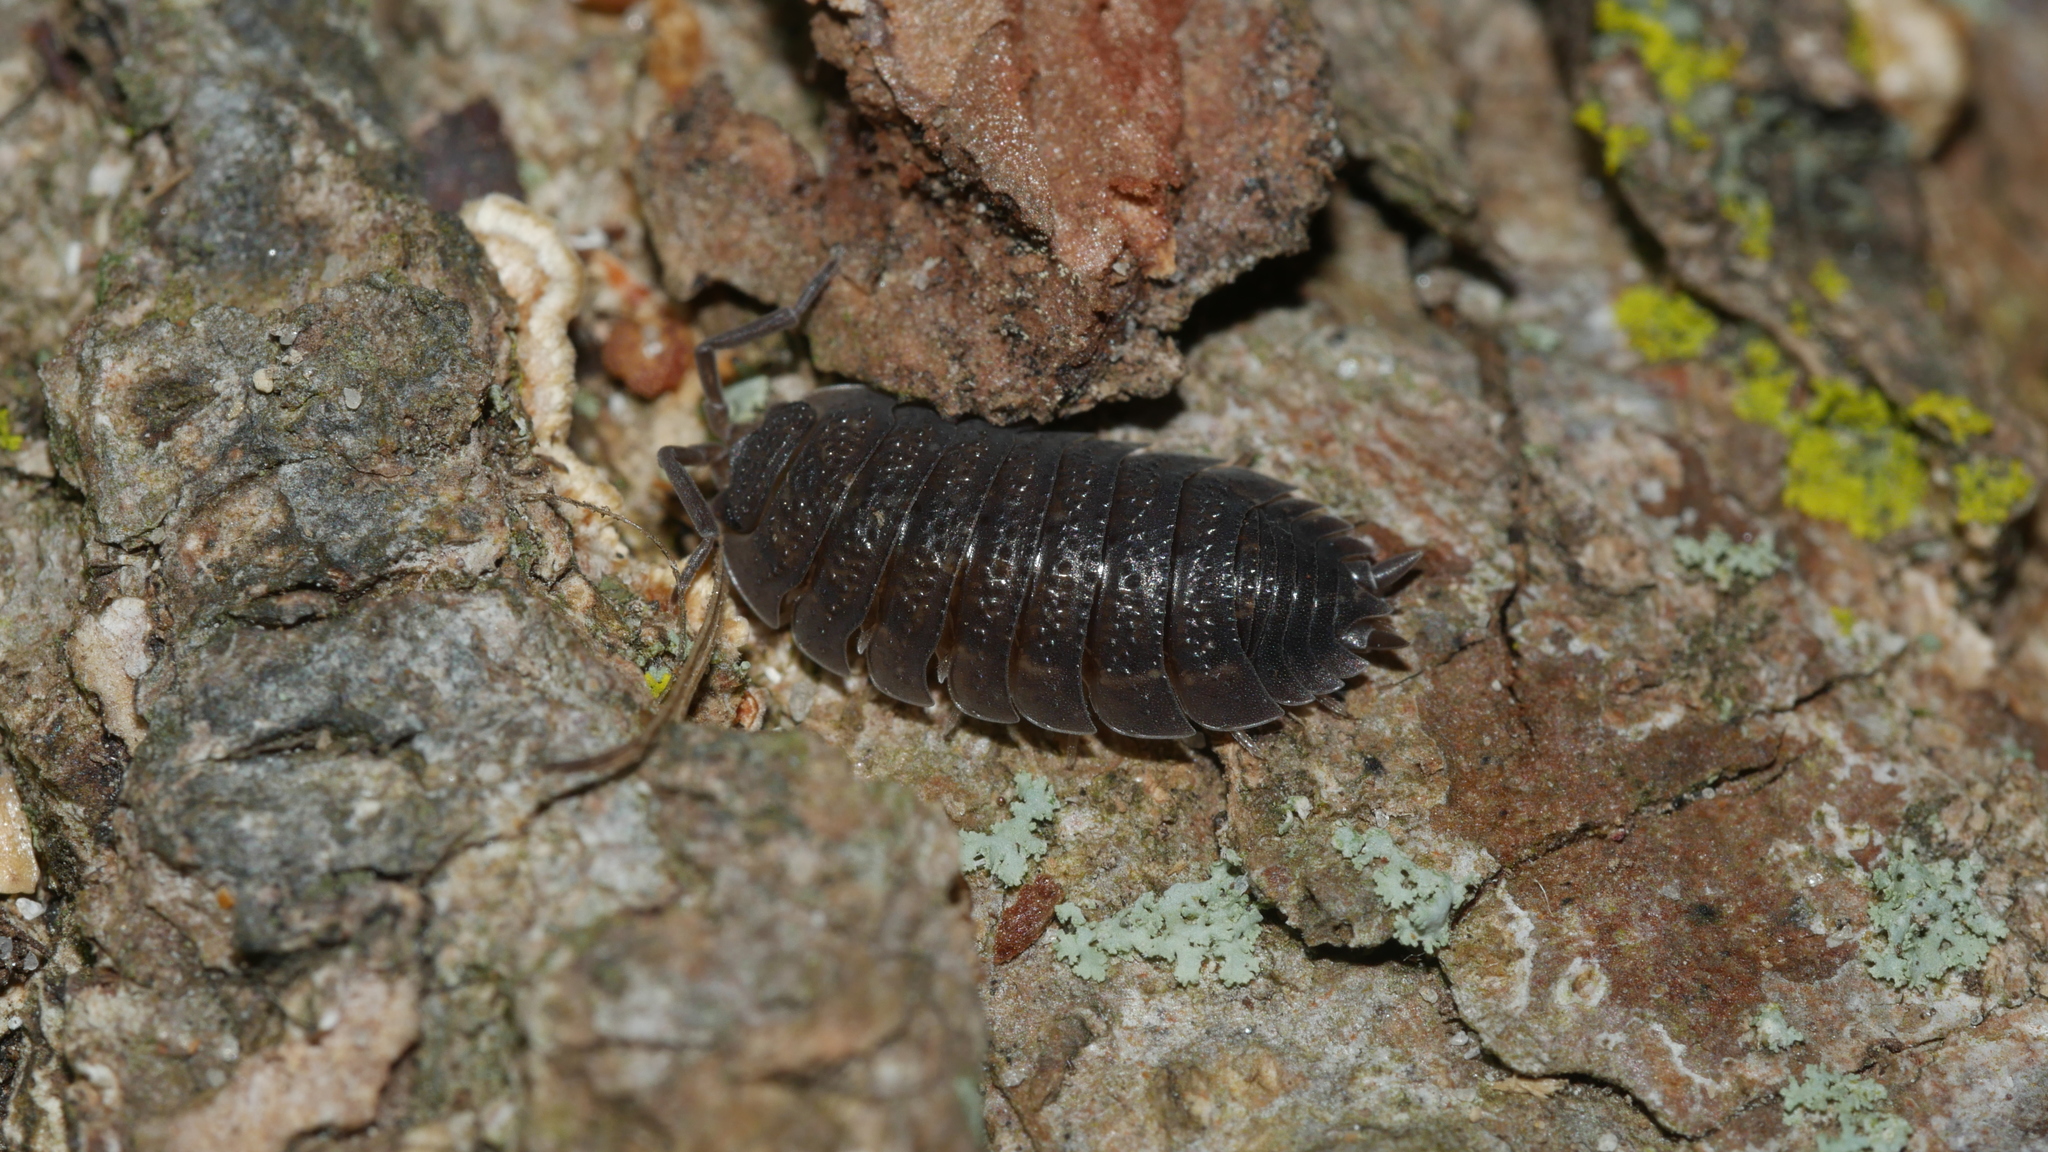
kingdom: Animalia
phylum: Arthropoda
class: Malacostraca
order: Isopoda
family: Porcellionidae
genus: Porcellio
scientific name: Porcellio scaber
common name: Common rough woodlouse
